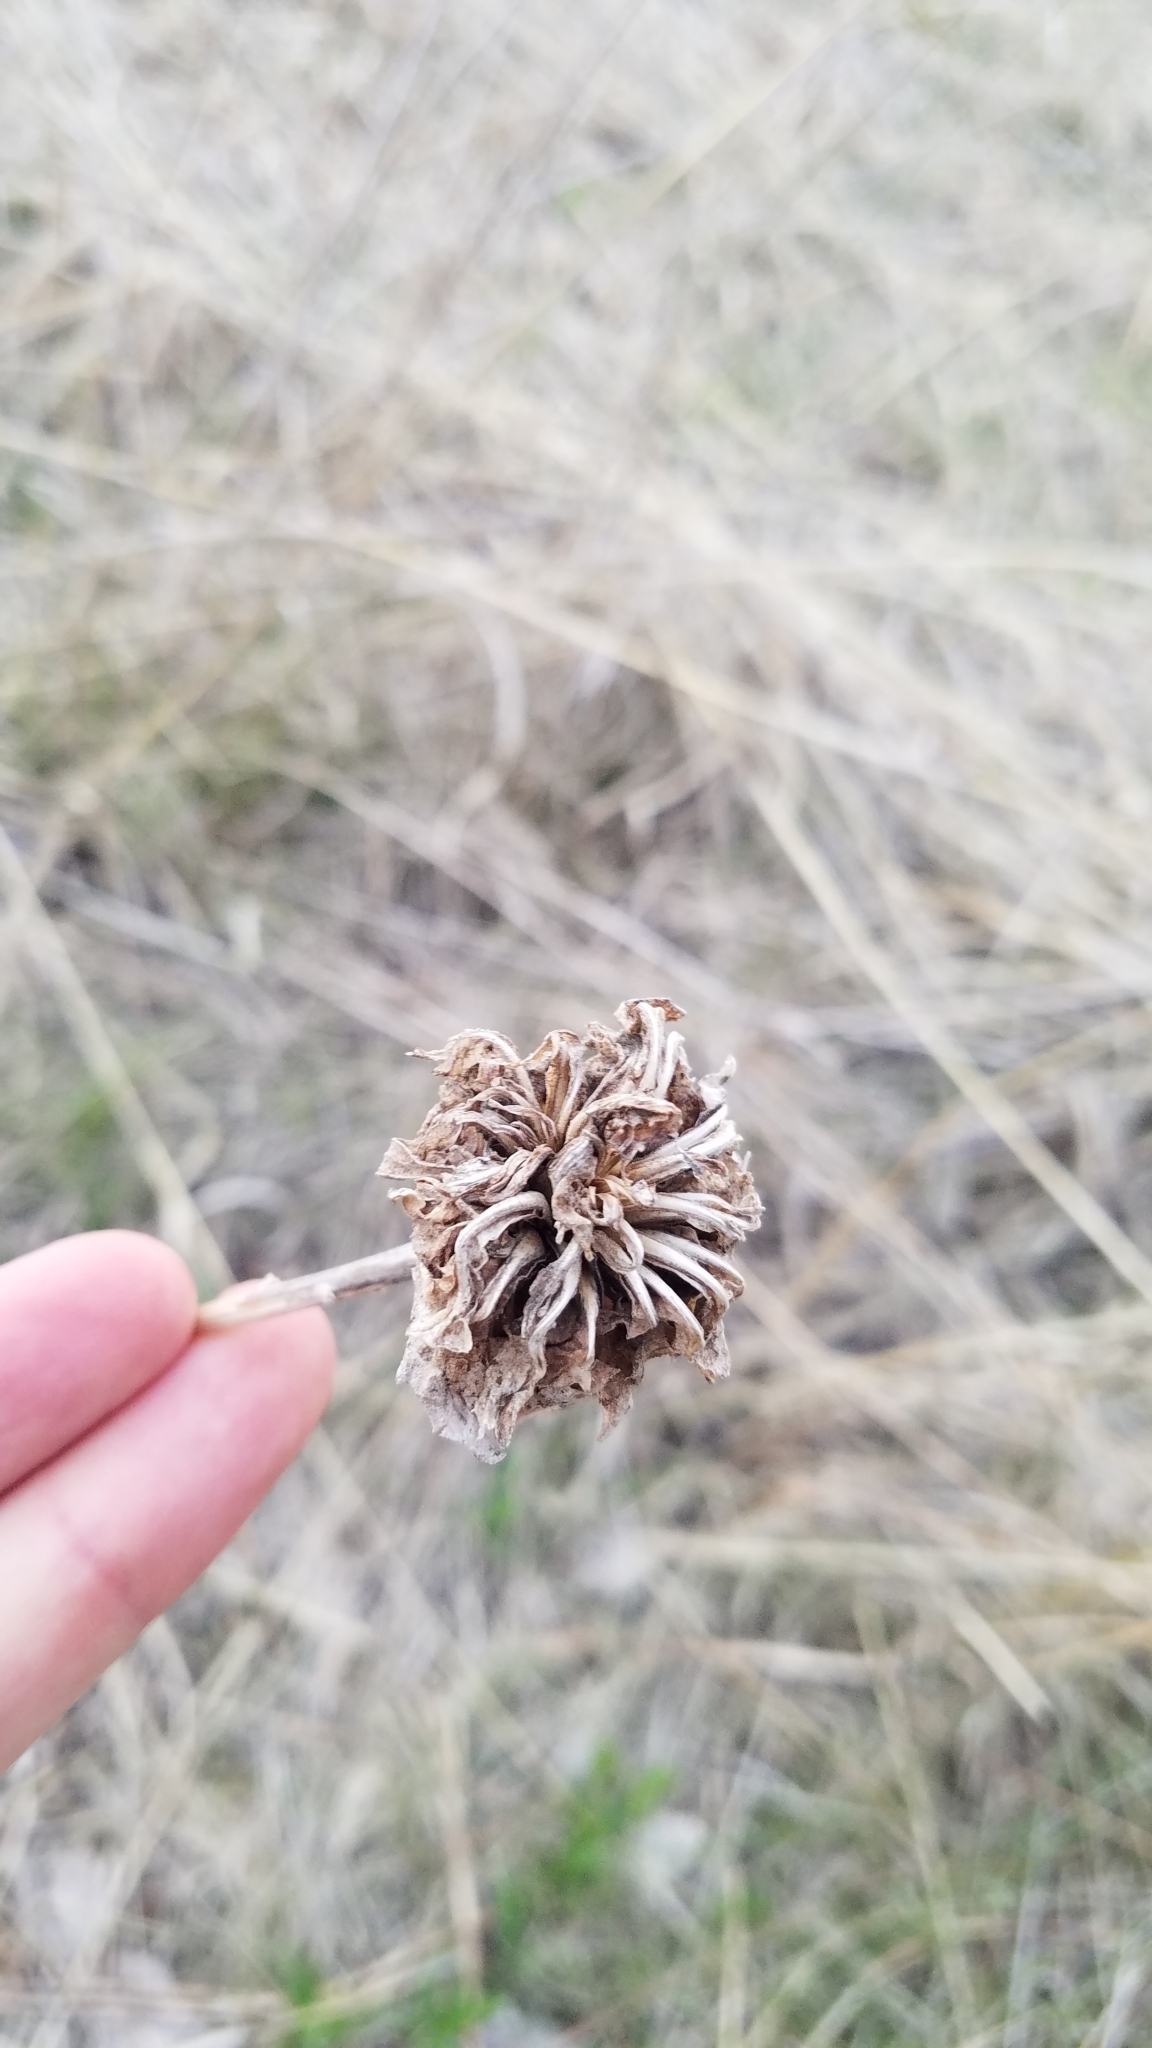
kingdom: Plantae
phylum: Tracheophyta
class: Magnoliopsida
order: Lamiales
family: Lamiaceae
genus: Monarda
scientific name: Monarda fistulosa
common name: Purple beebalm
